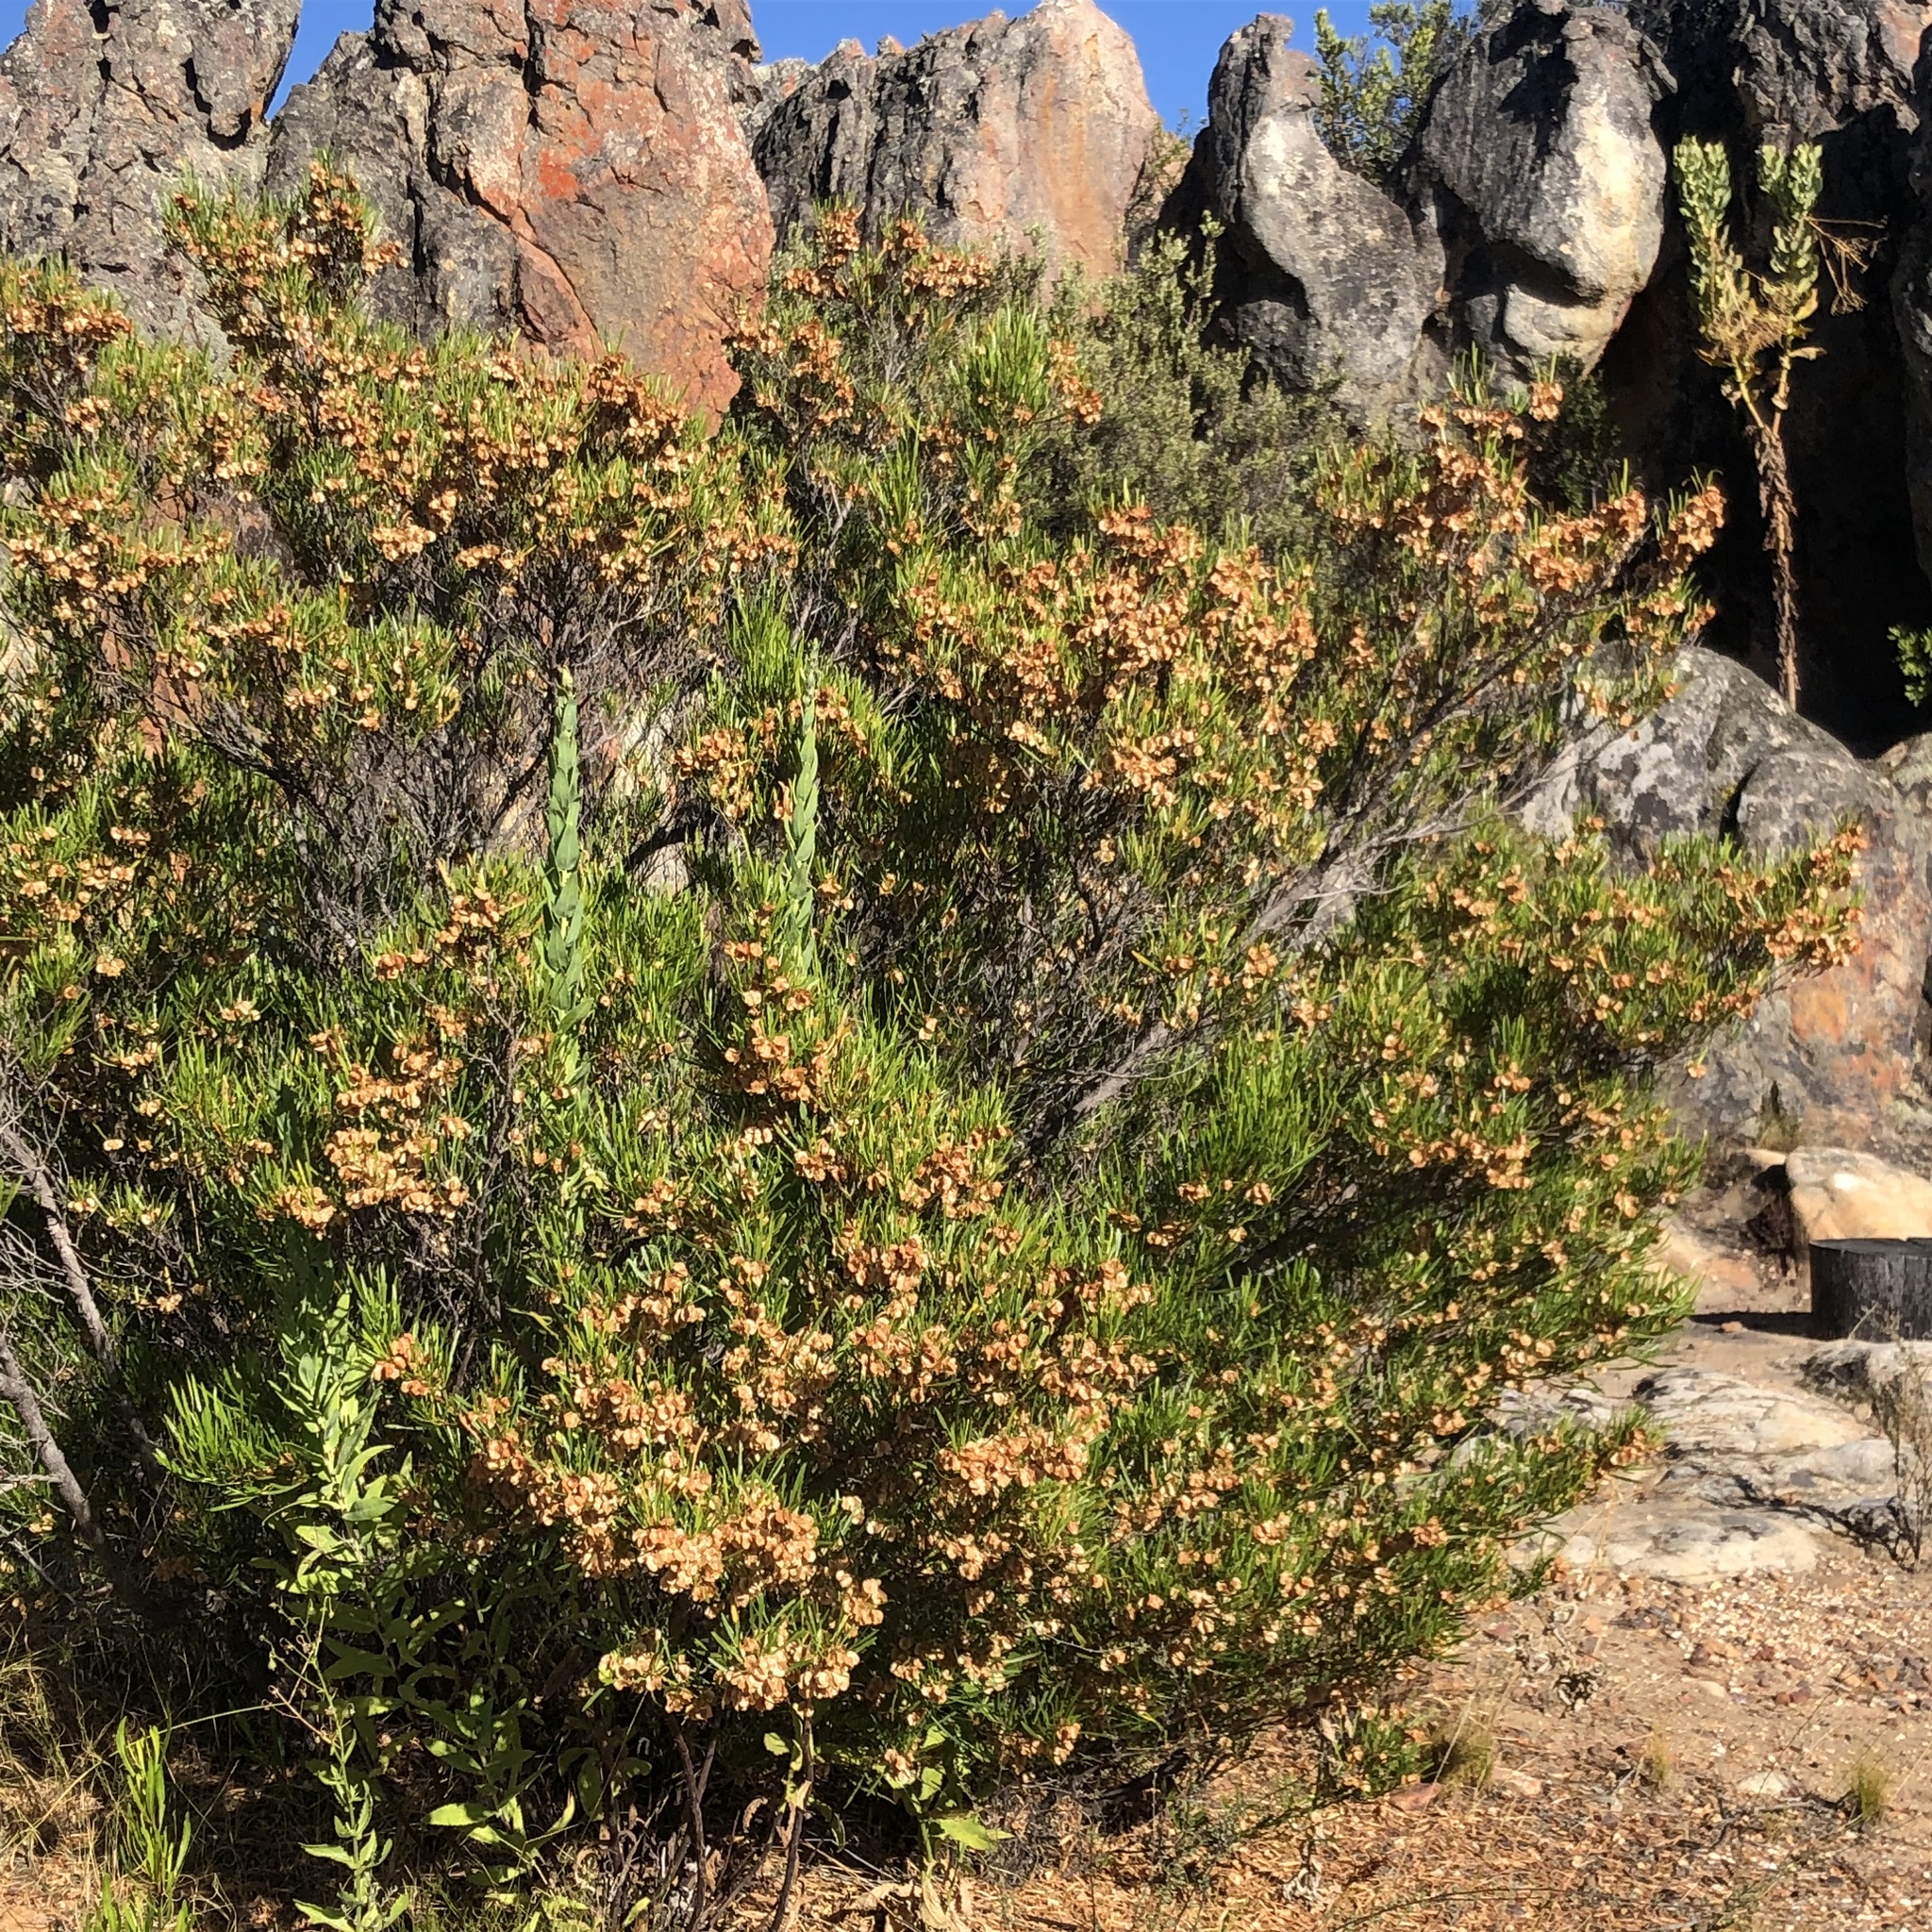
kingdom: Plantae
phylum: Tracheophyta
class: Magnoliopsida
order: Sapindales
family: Sapindaceae
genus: Dodonaea
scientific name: Dodonaea viscosa
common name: Hopbush
